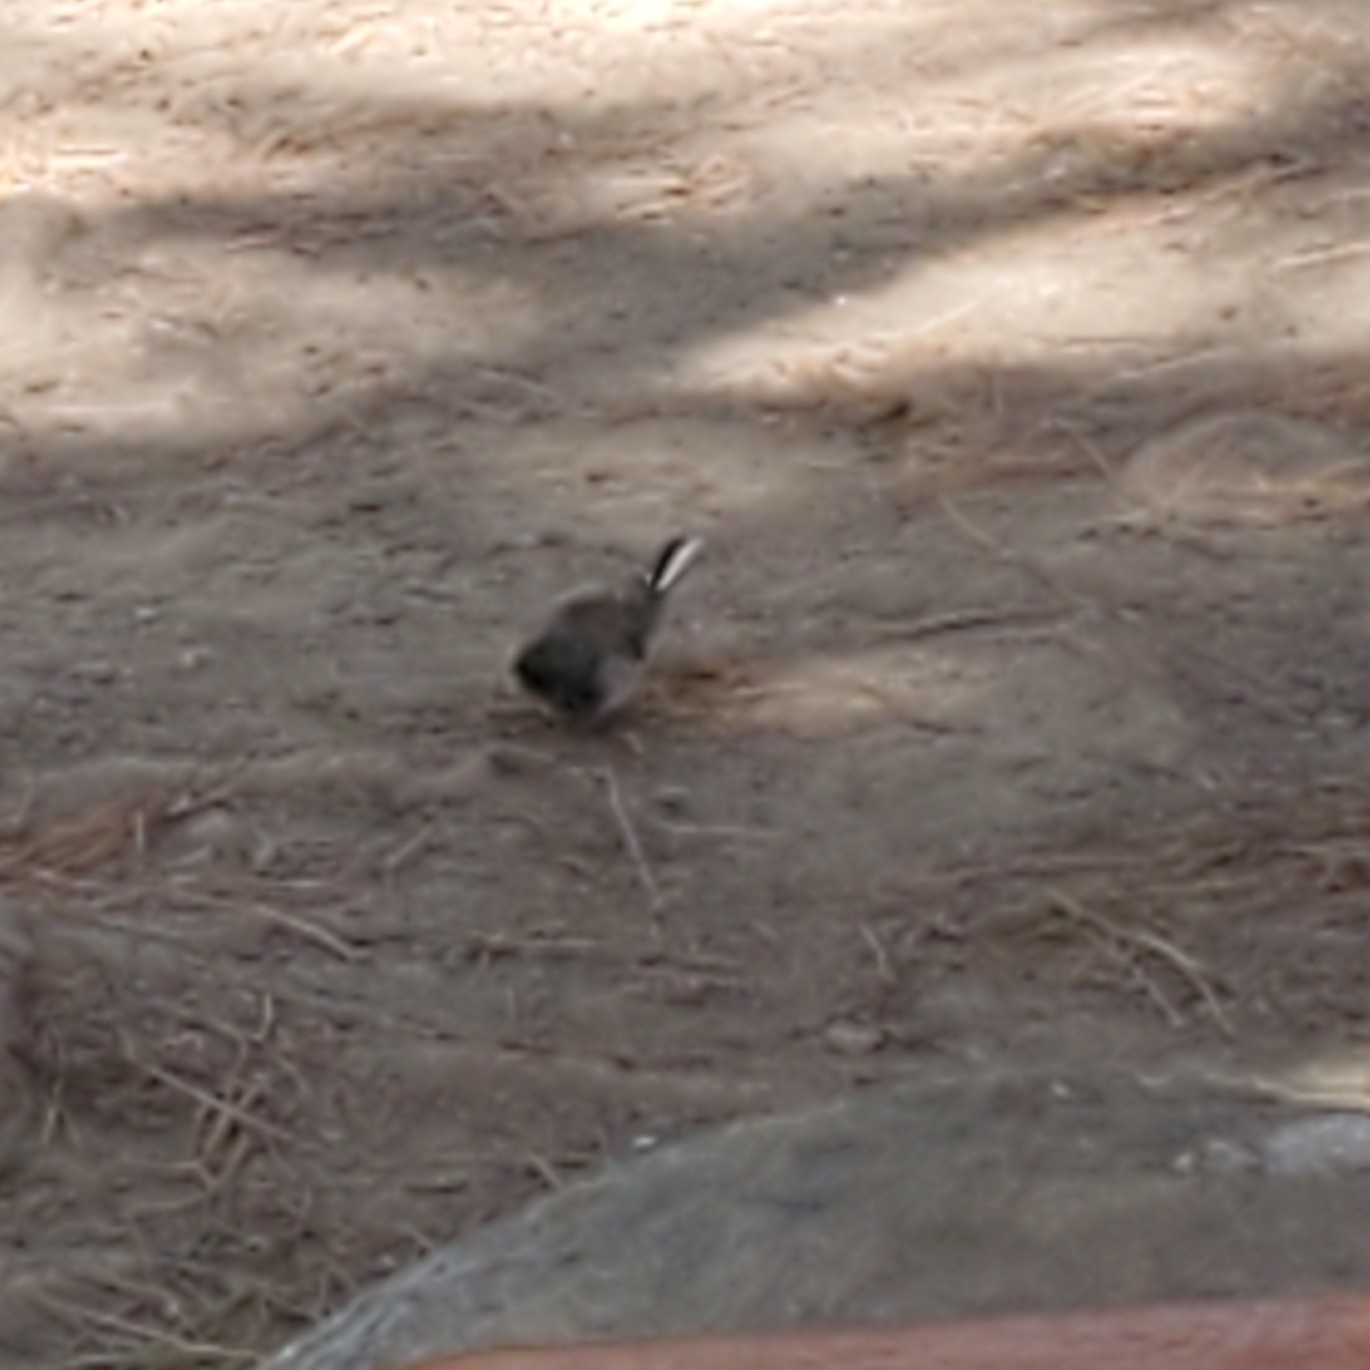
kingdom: Animalia
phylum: Chordata
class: Aves
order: Passeriformes
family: Passerellidae
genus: Junco
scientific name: Junco hyemalis
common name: Dark-eyed junco
